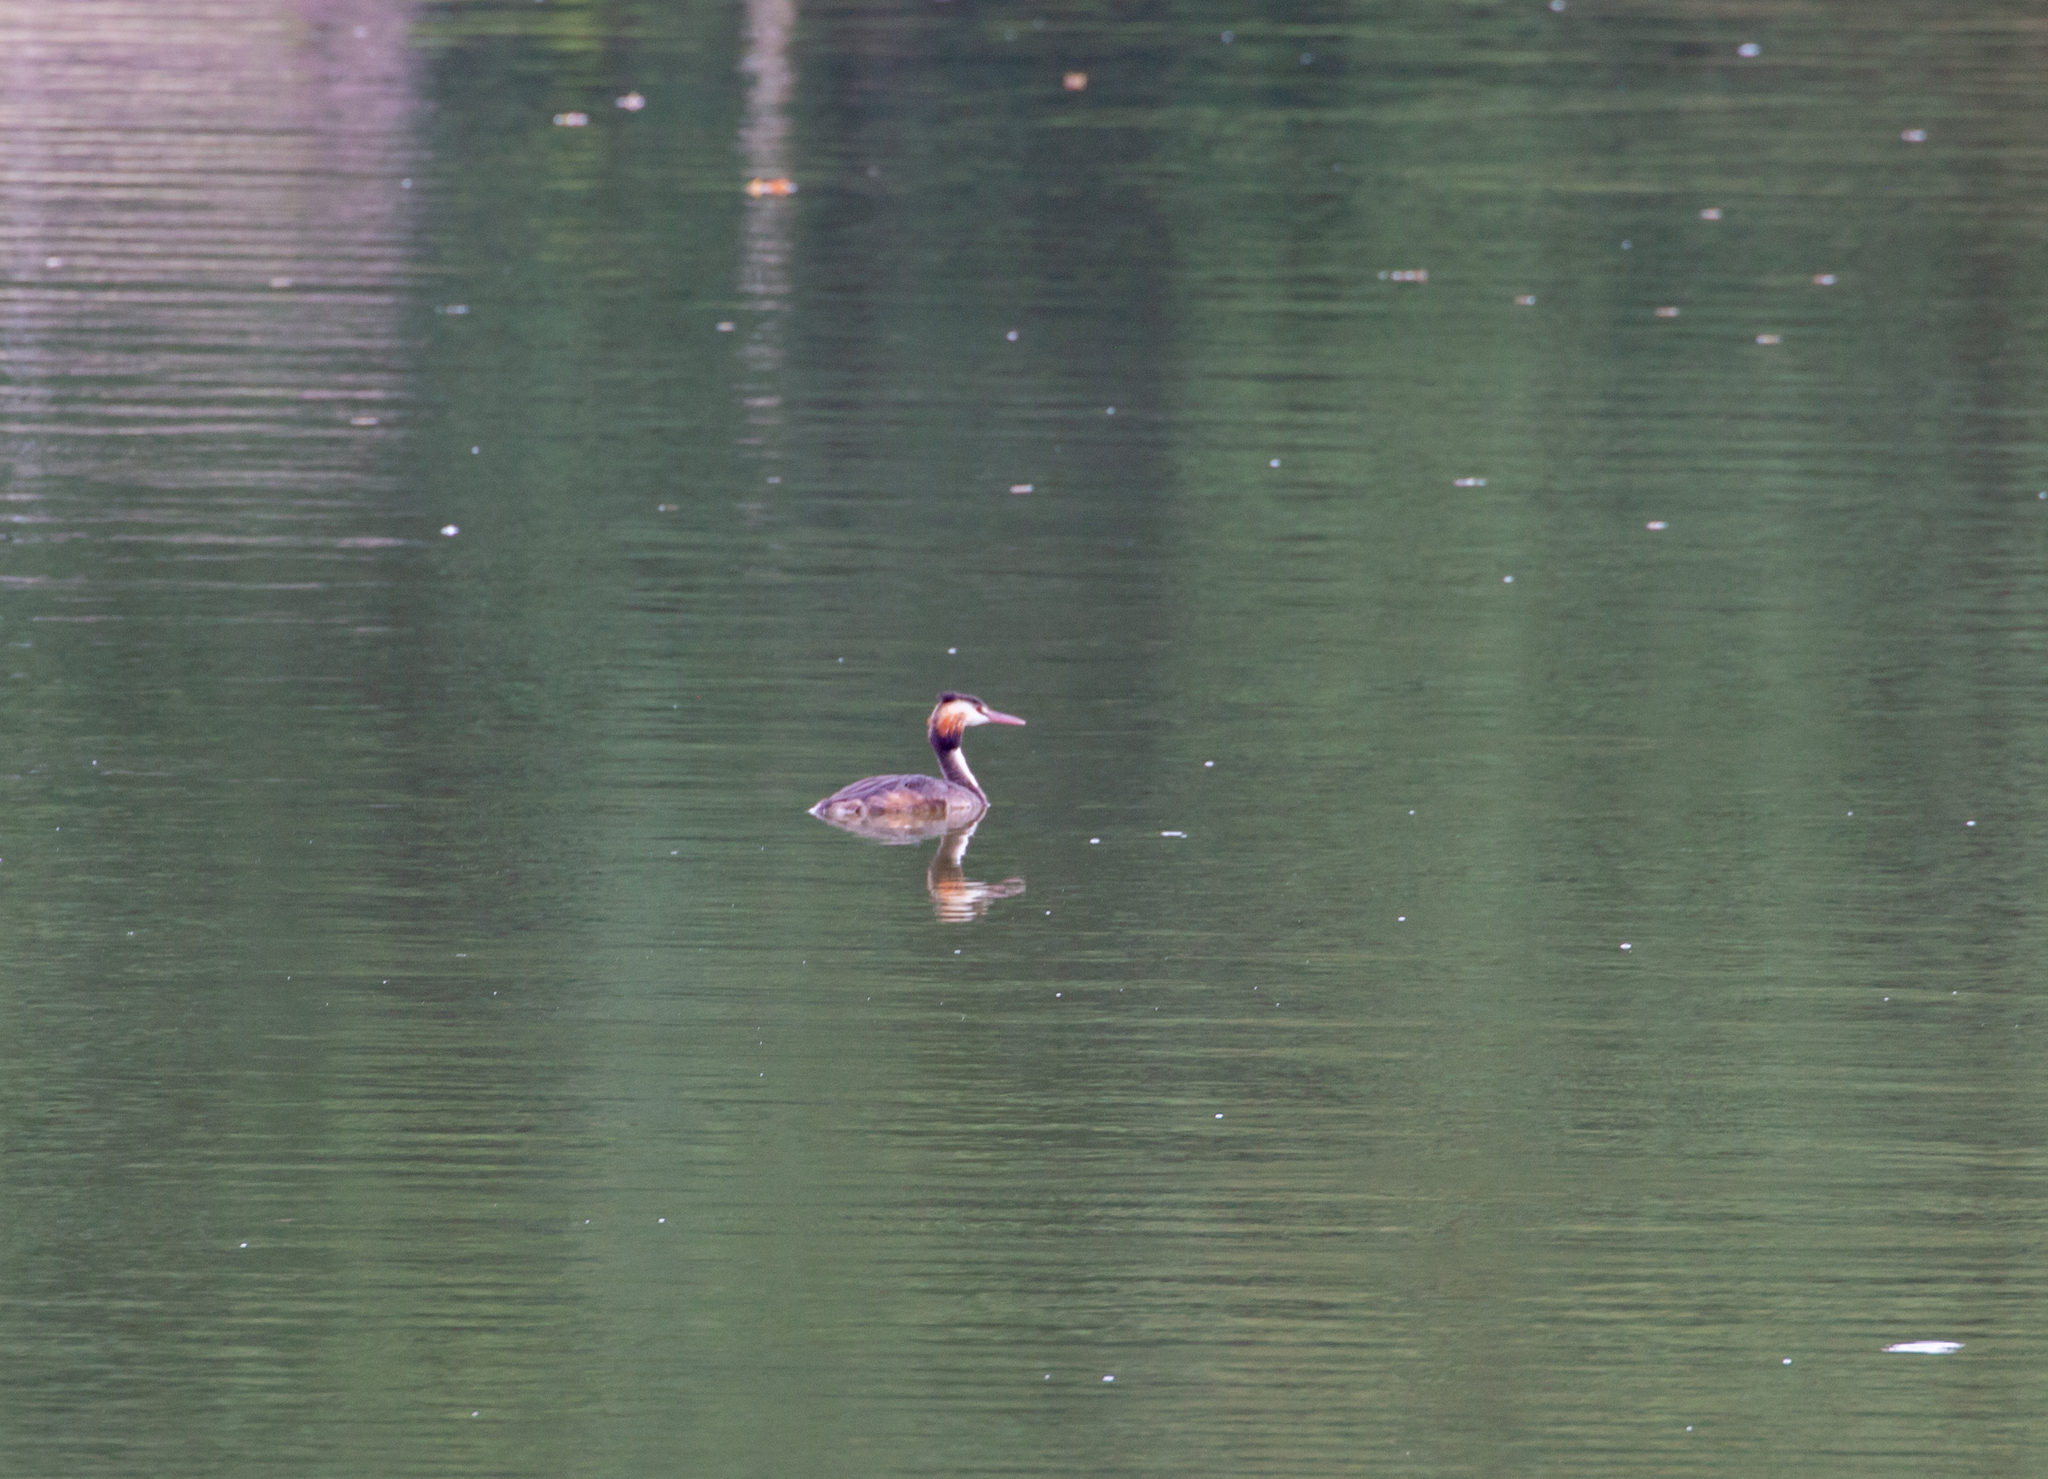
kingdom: Animalia
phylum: Chordata
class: Aves
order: Podicipediformes
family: Podicipedidae
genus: Podiceps
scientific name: Podiceps cristatus
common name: Great crested grebe
